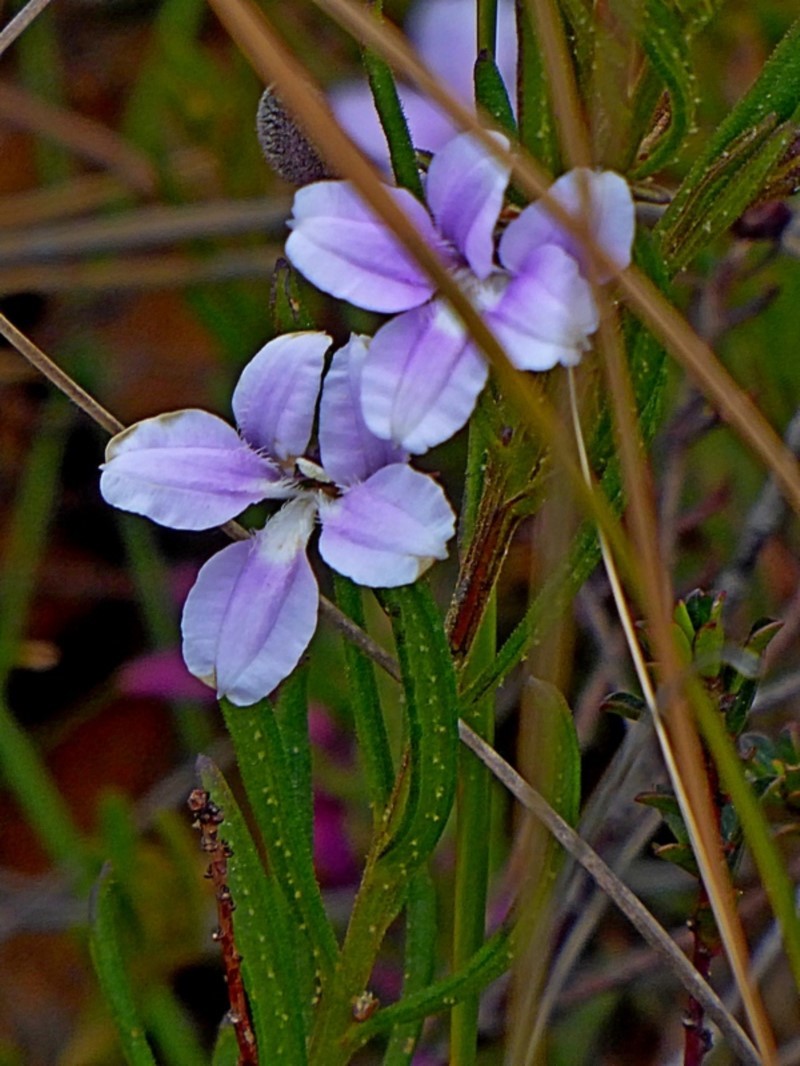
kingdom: Plantae
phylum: Tracheophyta
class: Magnoliopsida
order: Asterales
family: Goodeniaceae
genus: Goodenia
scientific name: Goodenia barbata
